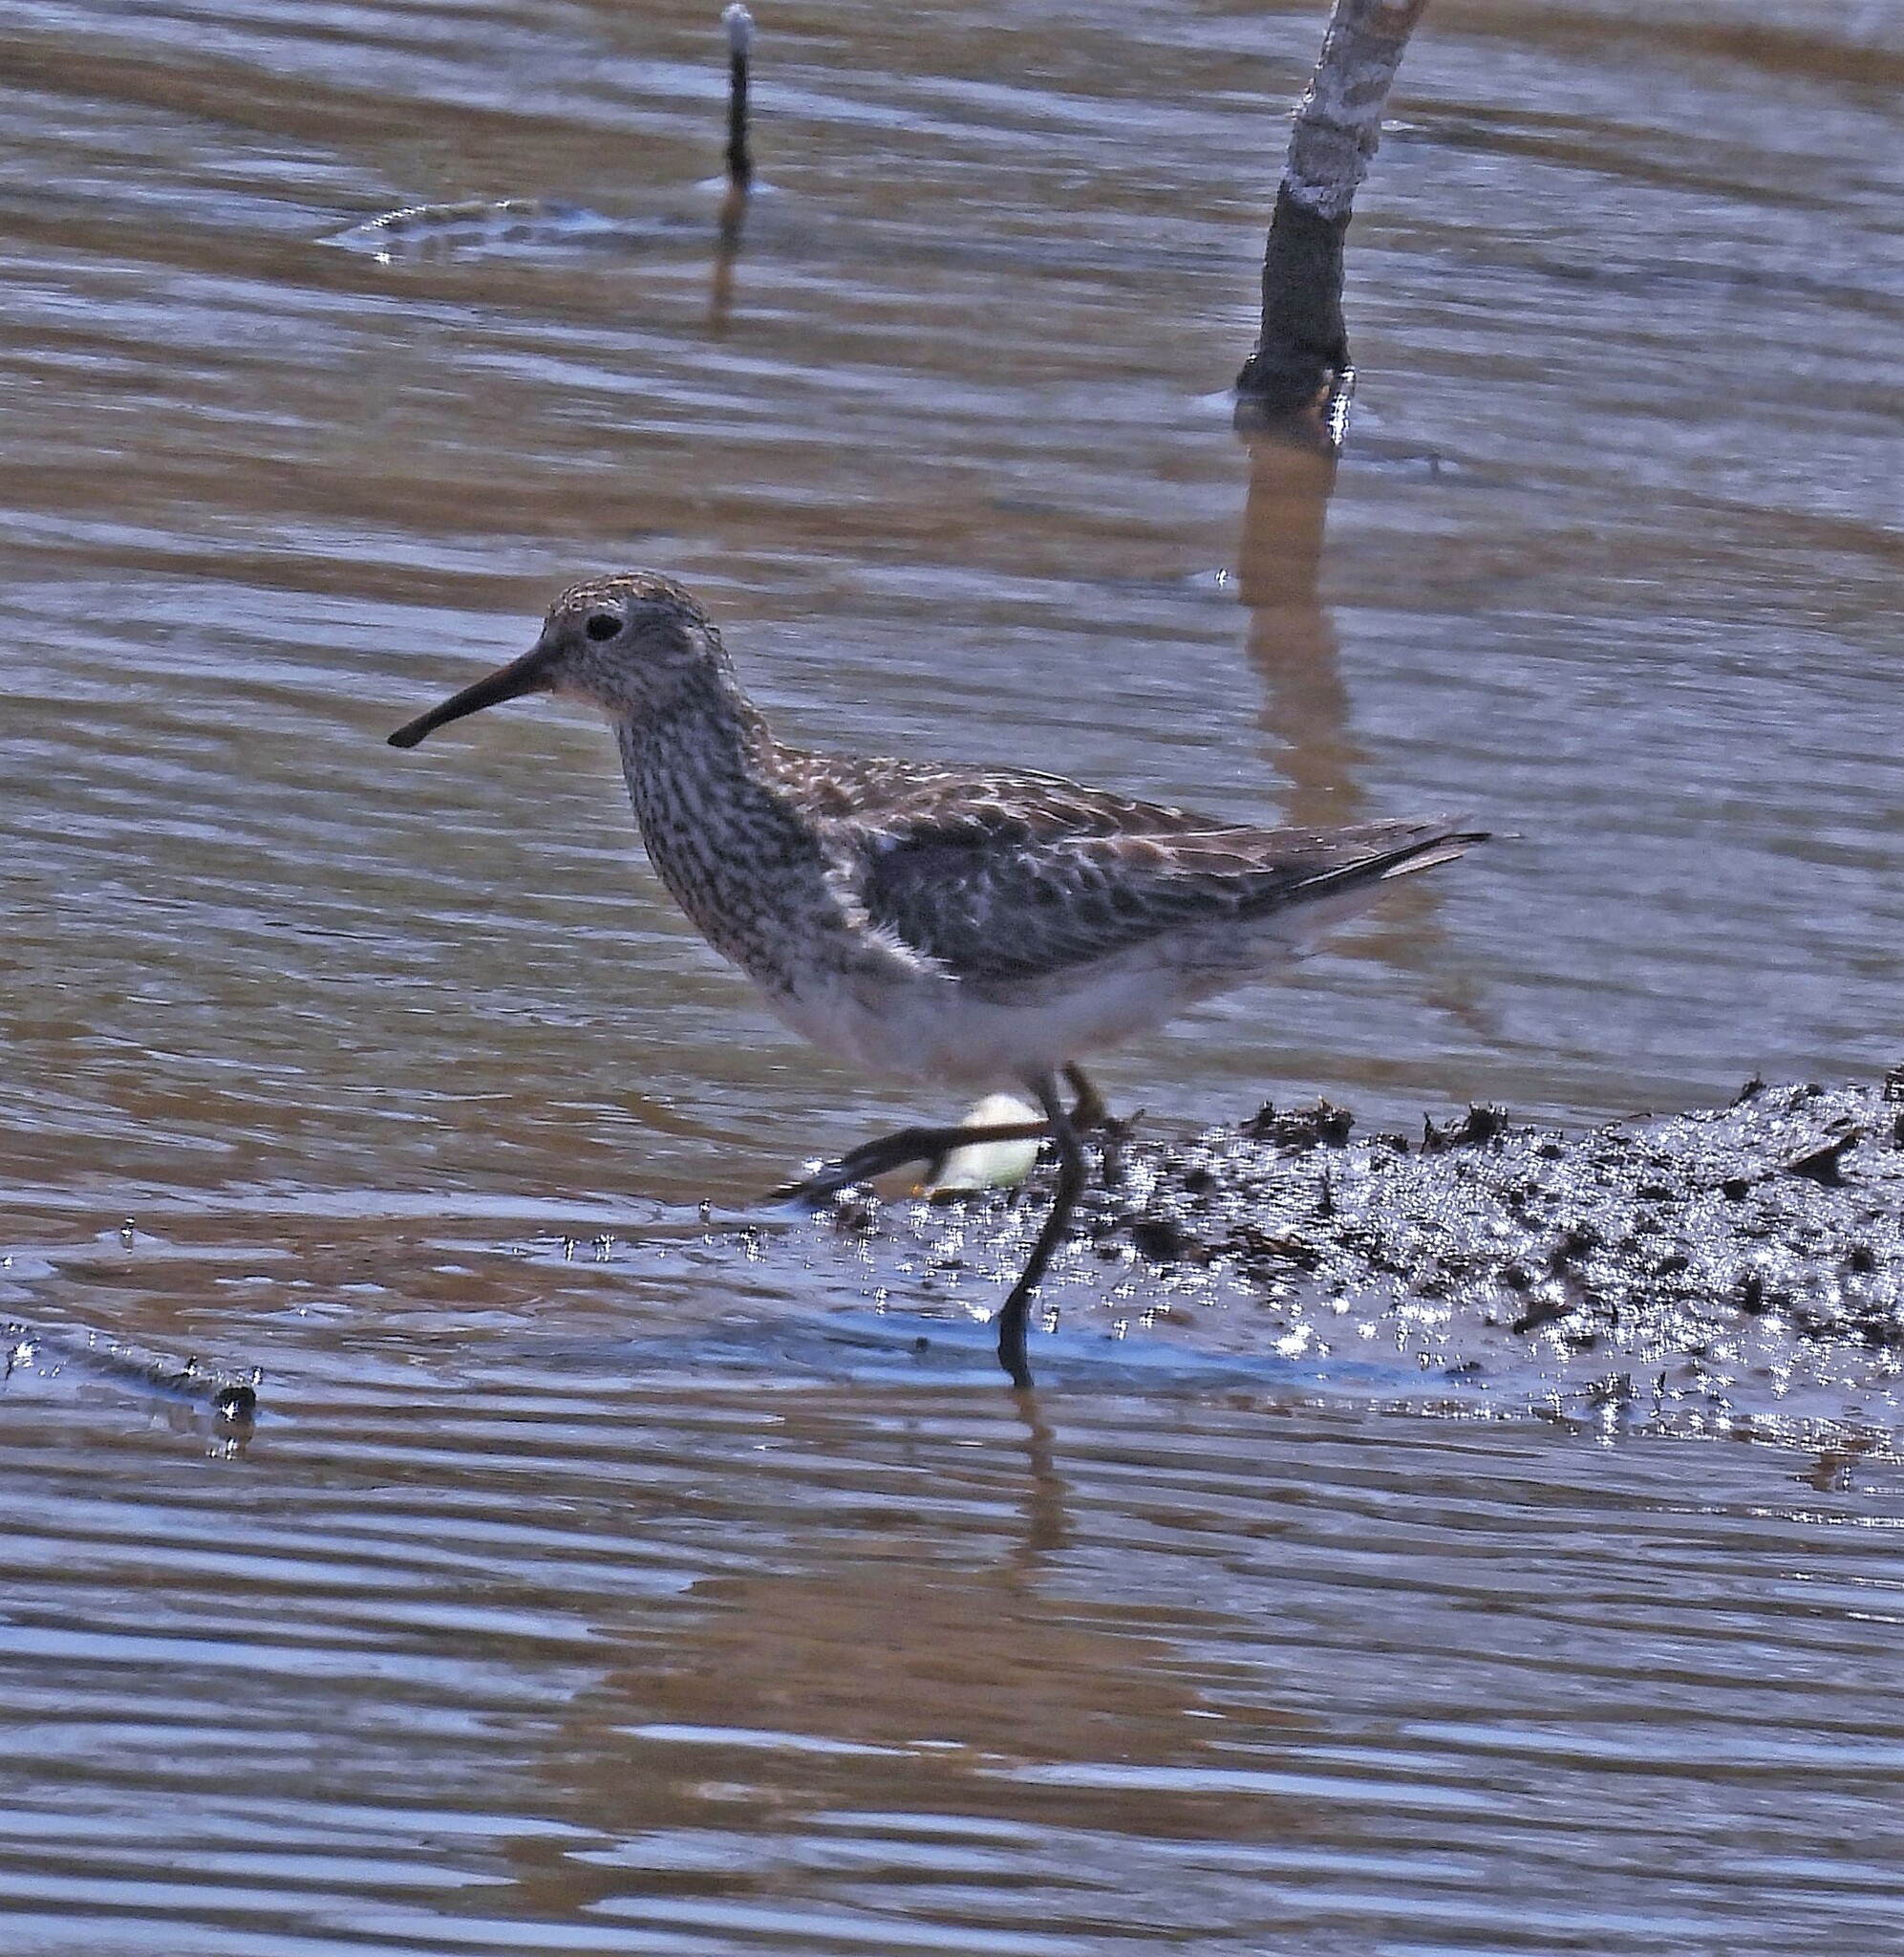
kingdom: Animalia
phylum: Chordata
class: Aves
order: Charadriiformes
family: Scolopacidae
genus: Calidris
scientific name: Calidris melanotos
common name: Pectoral sandpiper
